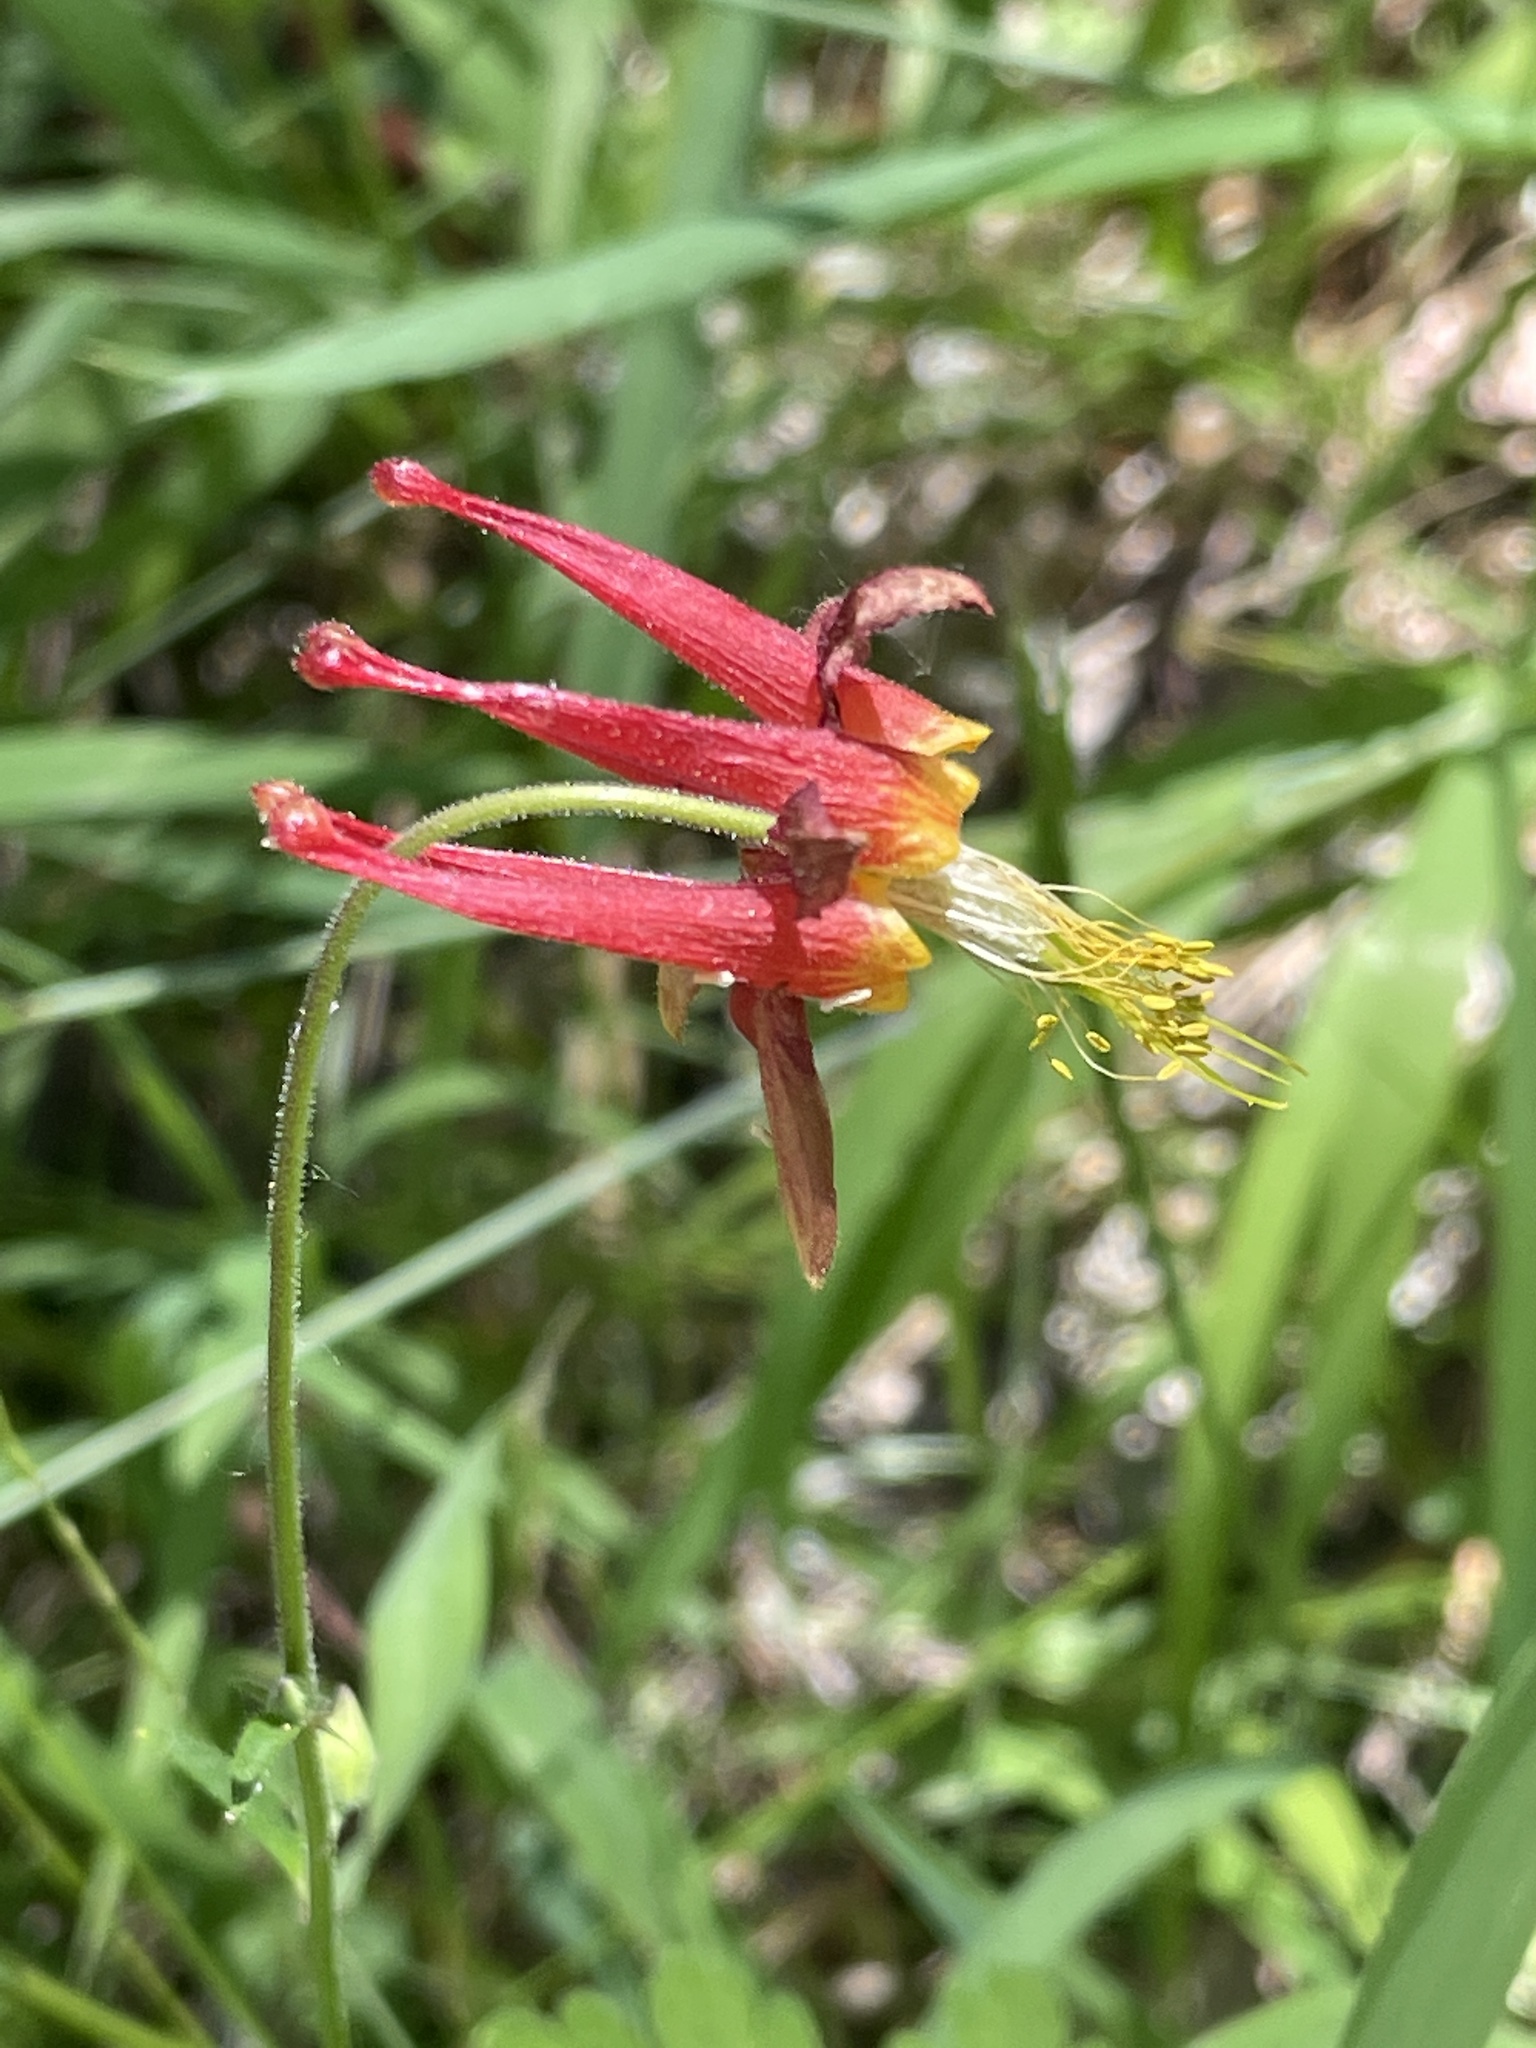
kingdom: Plantae
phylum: Tracheophyta
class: Magnoliopsida
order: Ranunculales
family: Ranunculaceae
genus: Aquilegia
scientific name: Aquilegia formosa
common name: Sitka columbine
